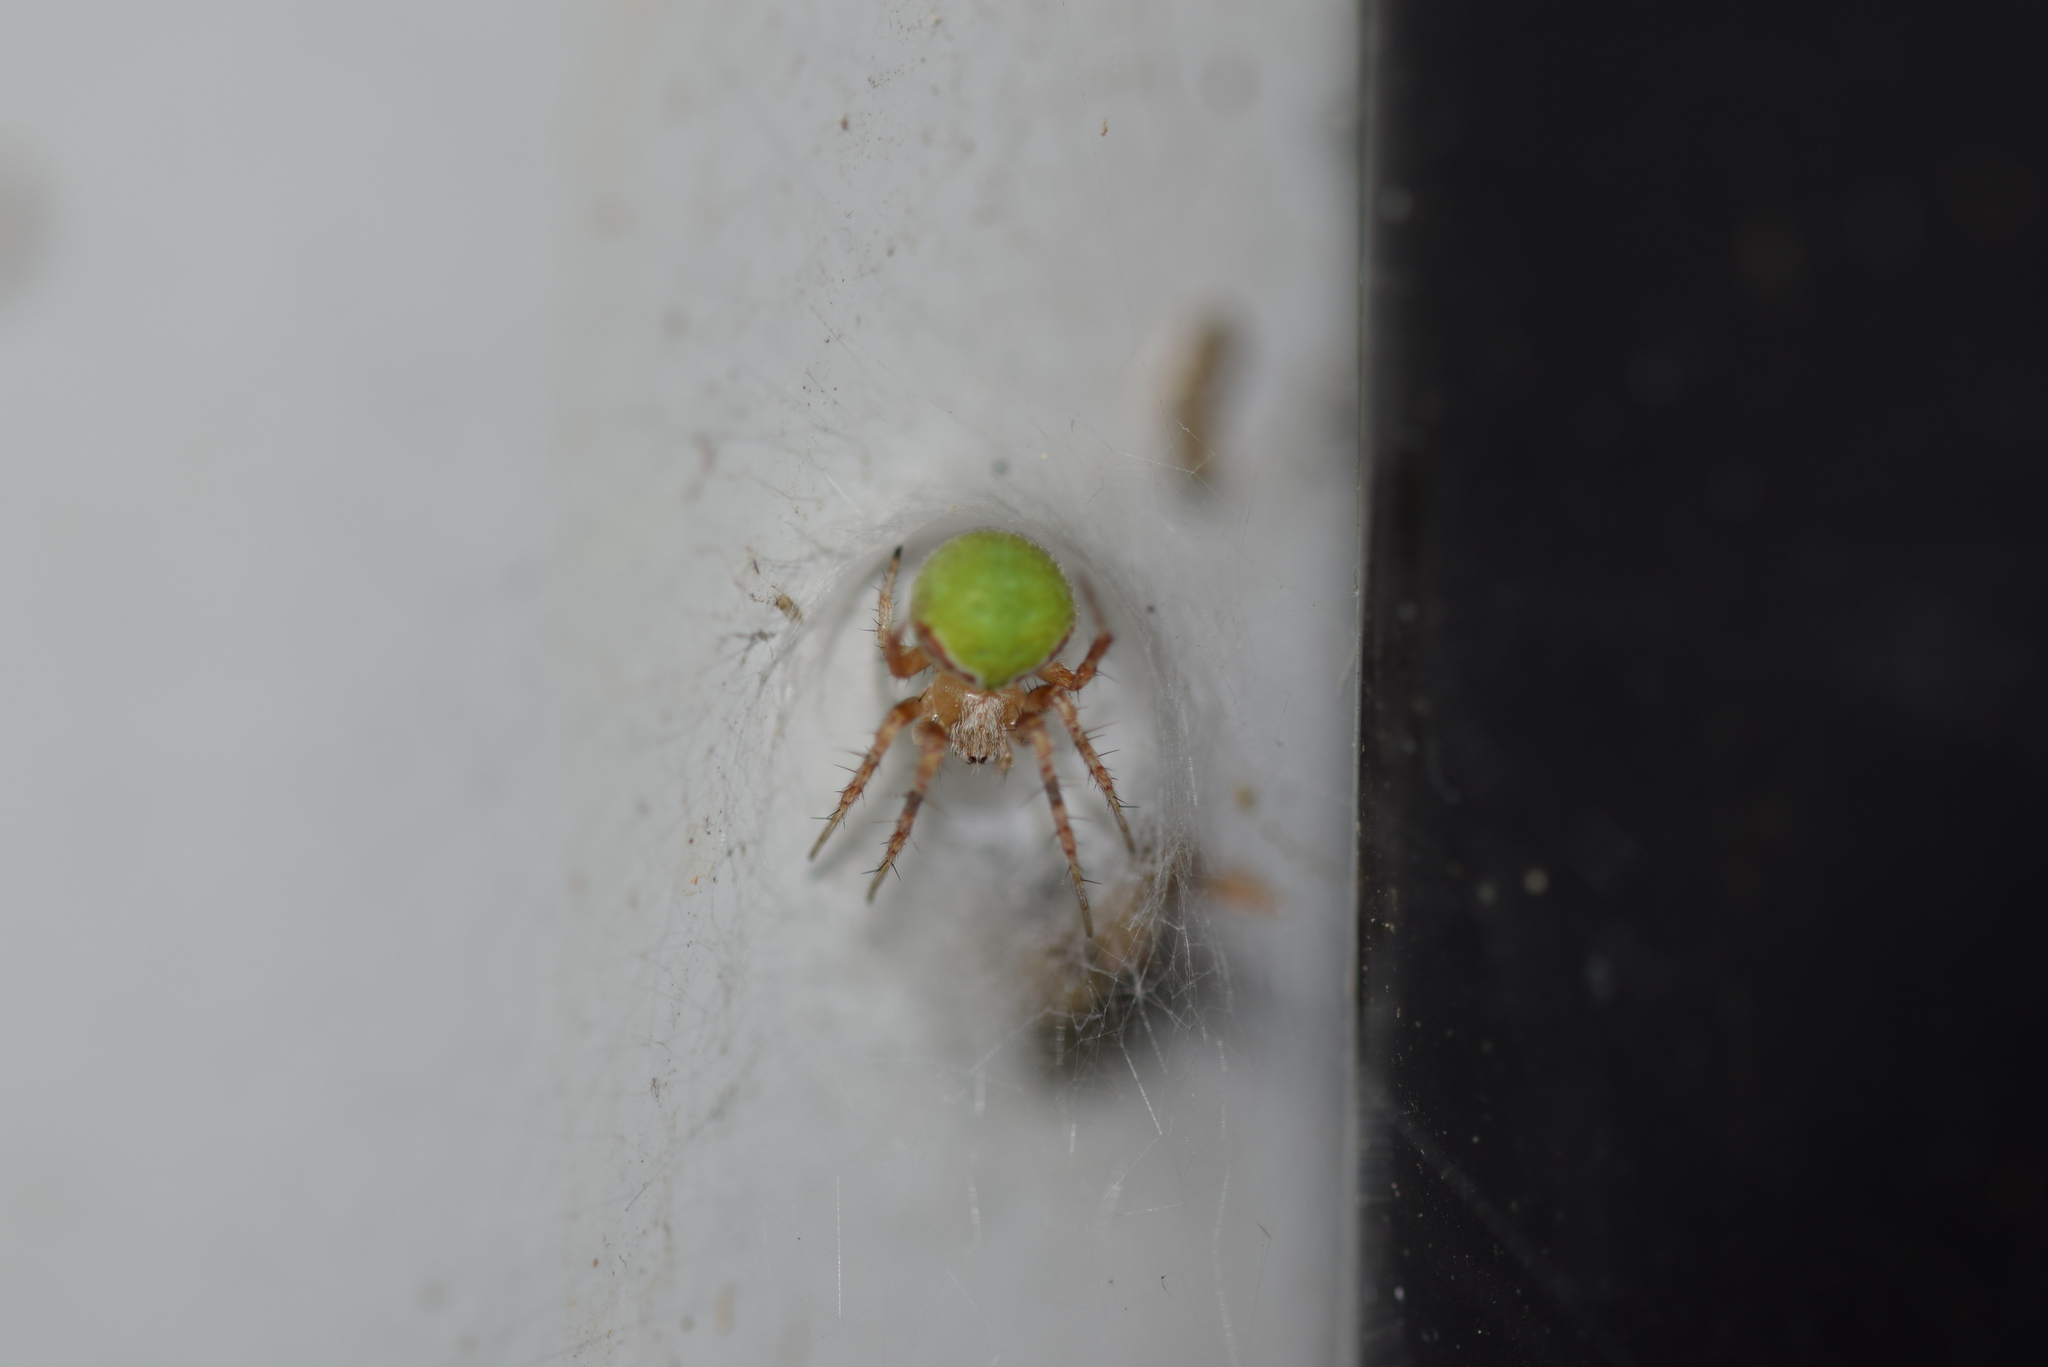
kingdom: Animalia
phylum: Arthropoda
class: Arachnida
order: Araneae
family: Araneidae
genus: Araneus
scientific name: Araneus detrimentosus
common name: Orb weavers
